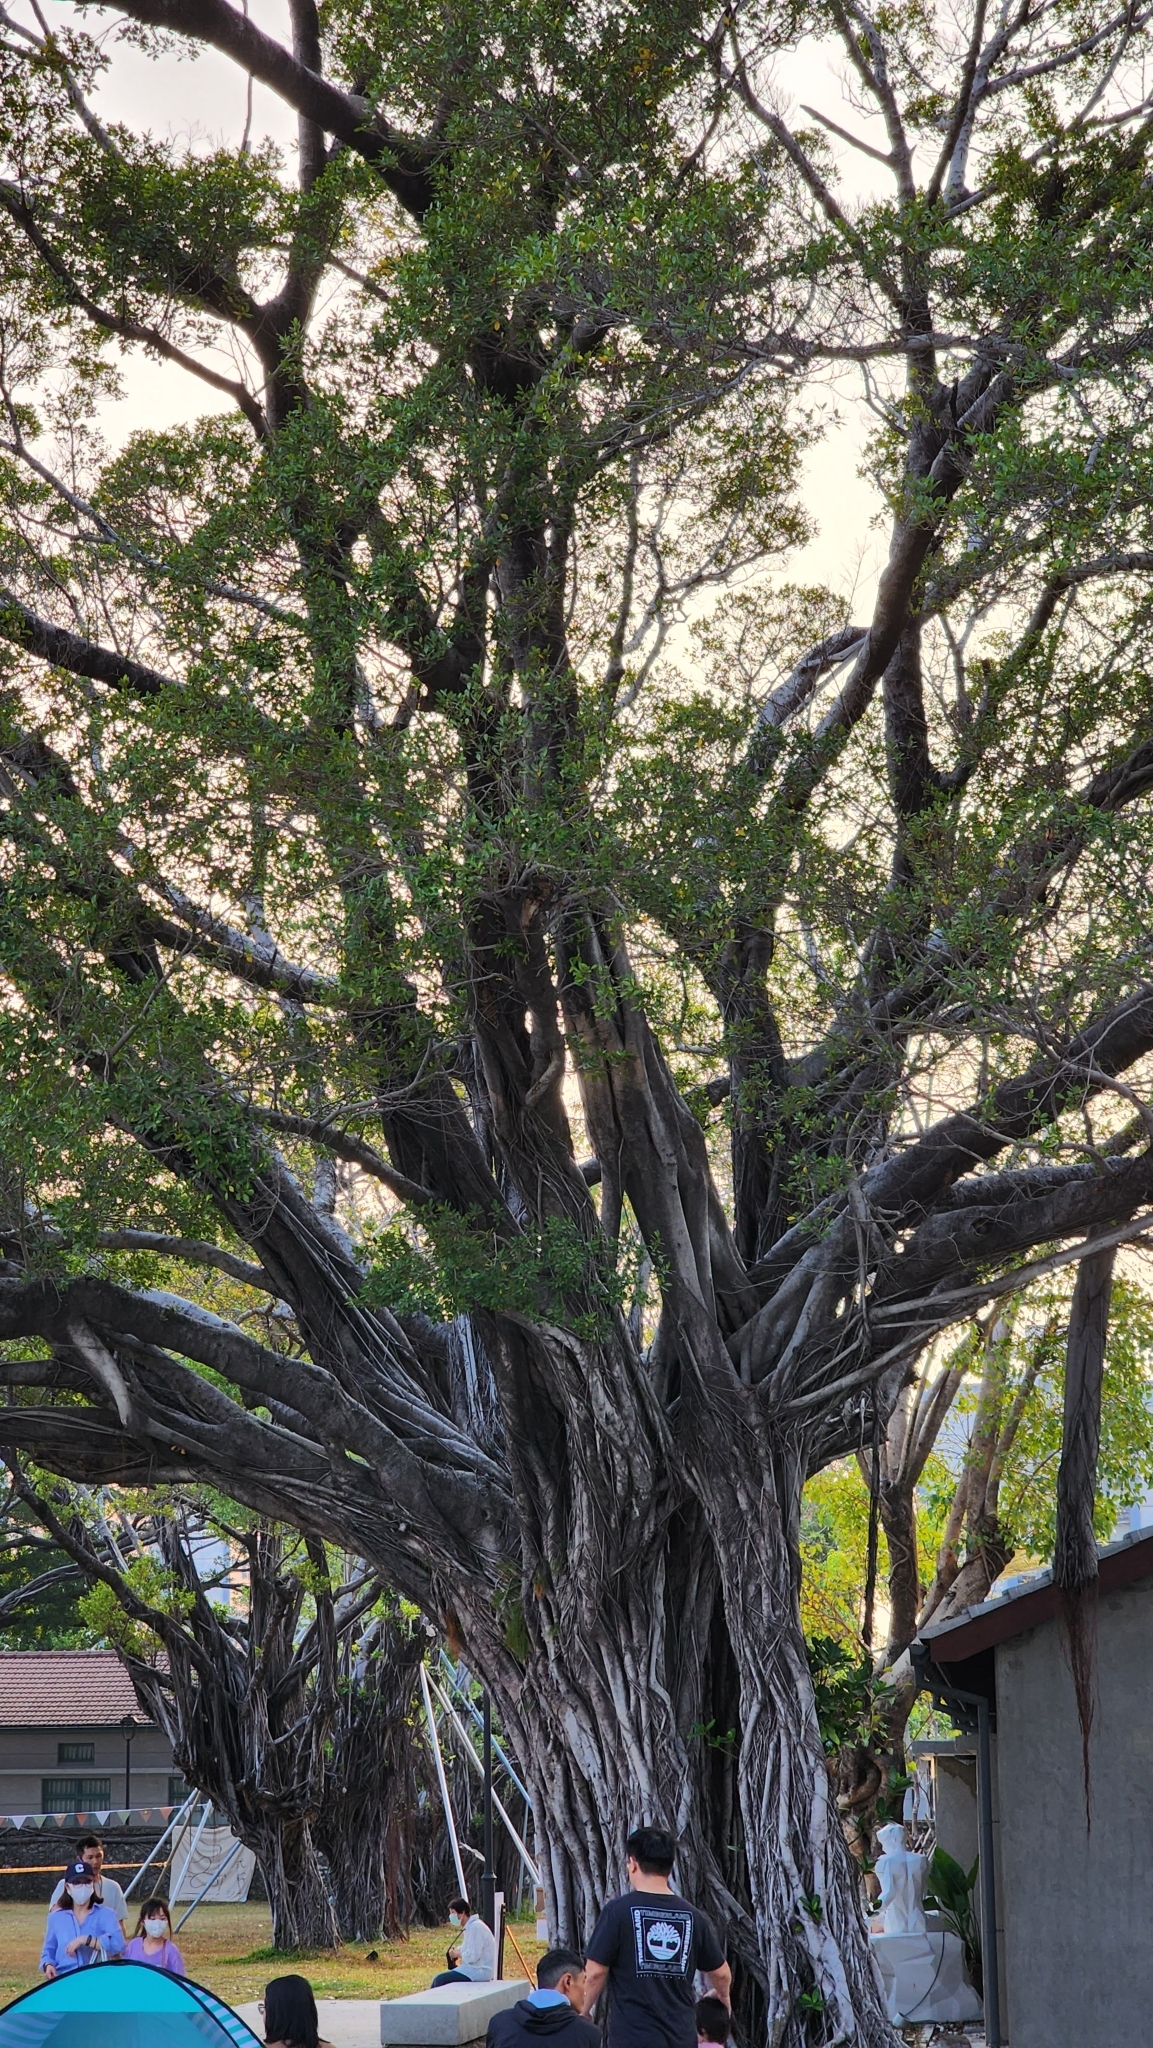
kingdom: Plantae
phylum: Tracheophyta
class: Magnoliopsida
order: Rosales
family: Moraceae
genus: Ficus
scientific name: Ficus microcarpa
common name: Chinese banyan
